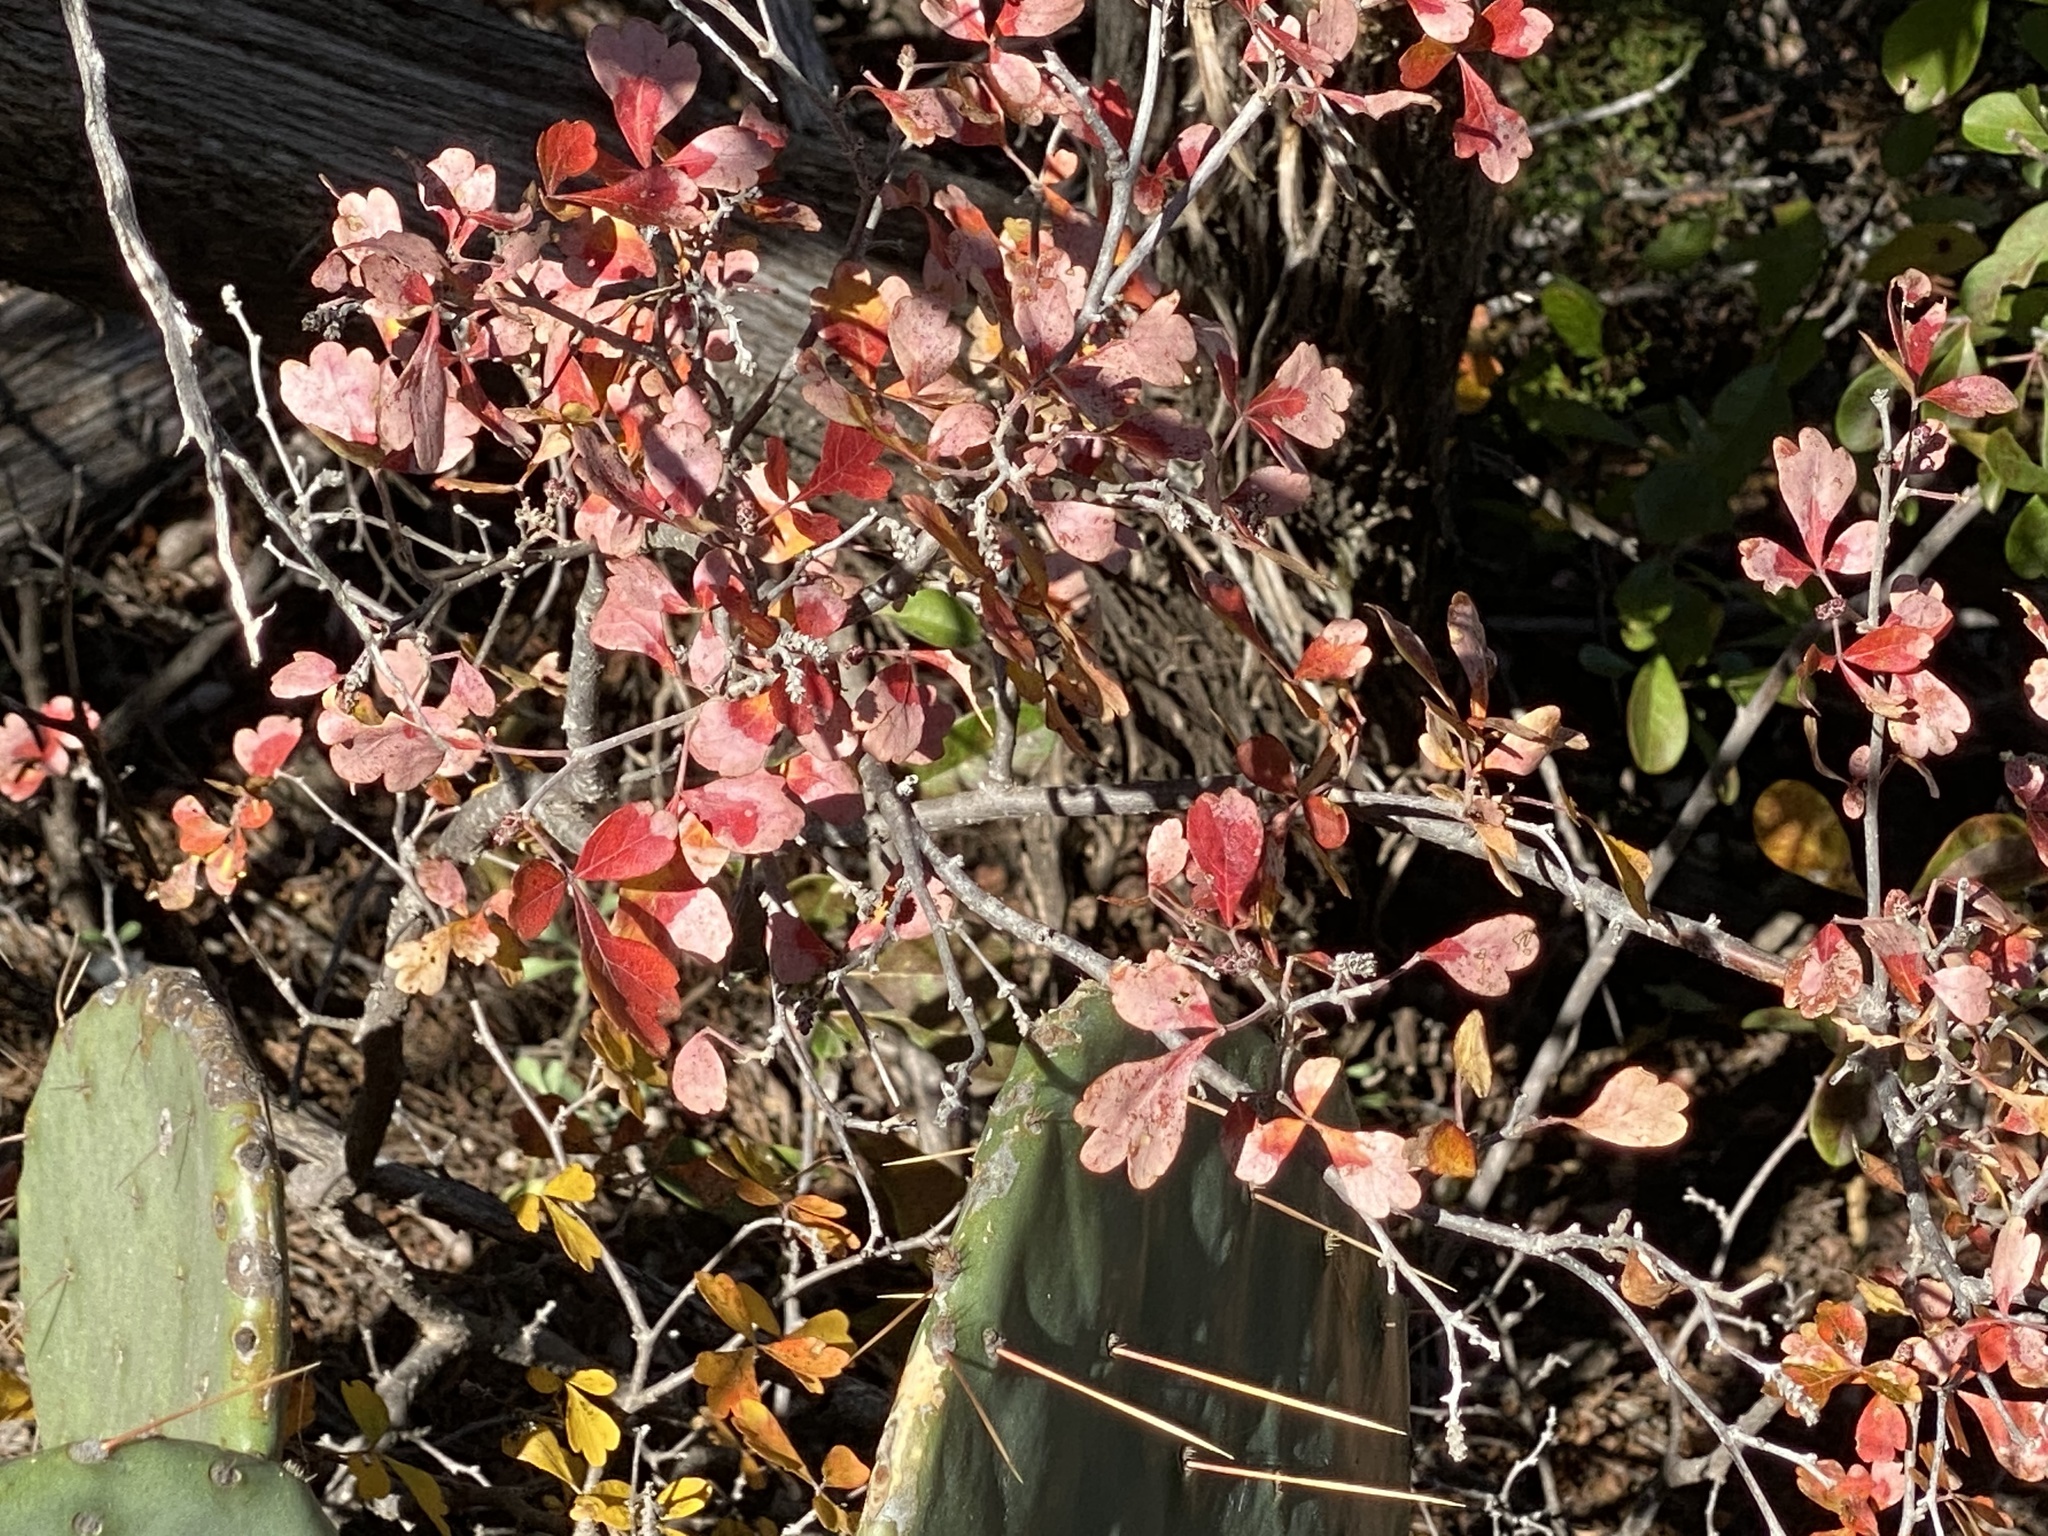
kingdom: Plantae
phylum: Tracheophyta
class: Magnoliopsida
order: Sapindales
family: Anacardiaceae
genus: Rhus
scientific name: Rhus aromatica
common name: Aromatic sumac
